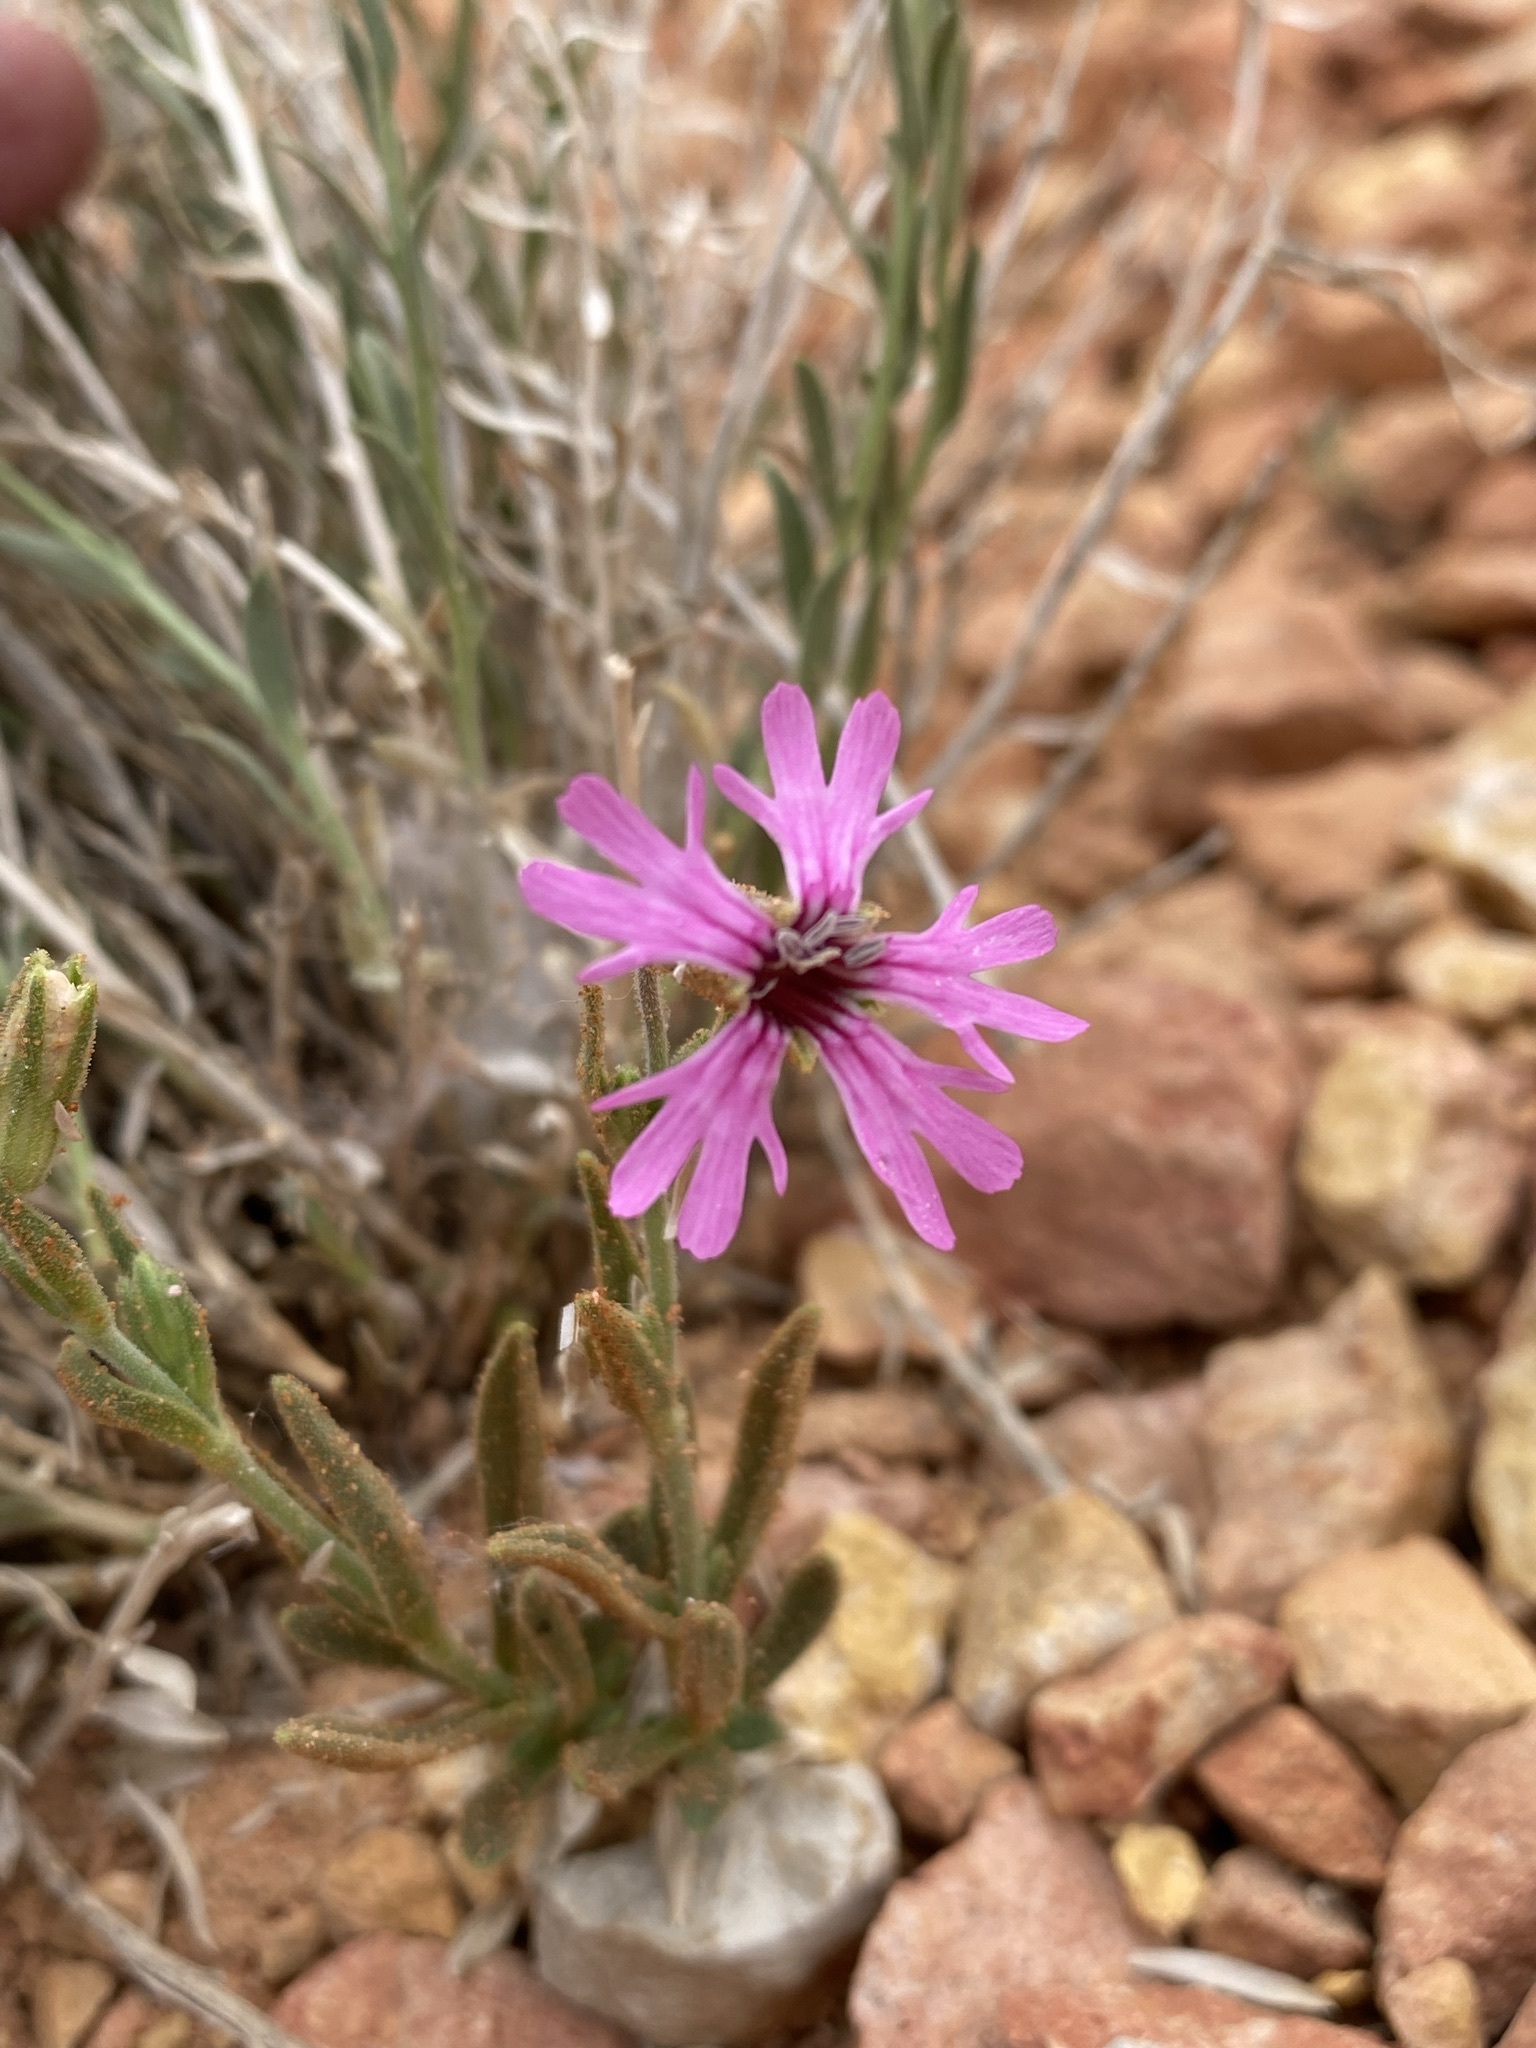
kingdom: Plantae
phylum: Tracheophyta
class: Magnoliopsida
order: Caryophyllales
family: Caryophyllaceae
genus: Silene
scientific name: Silene petersonii
